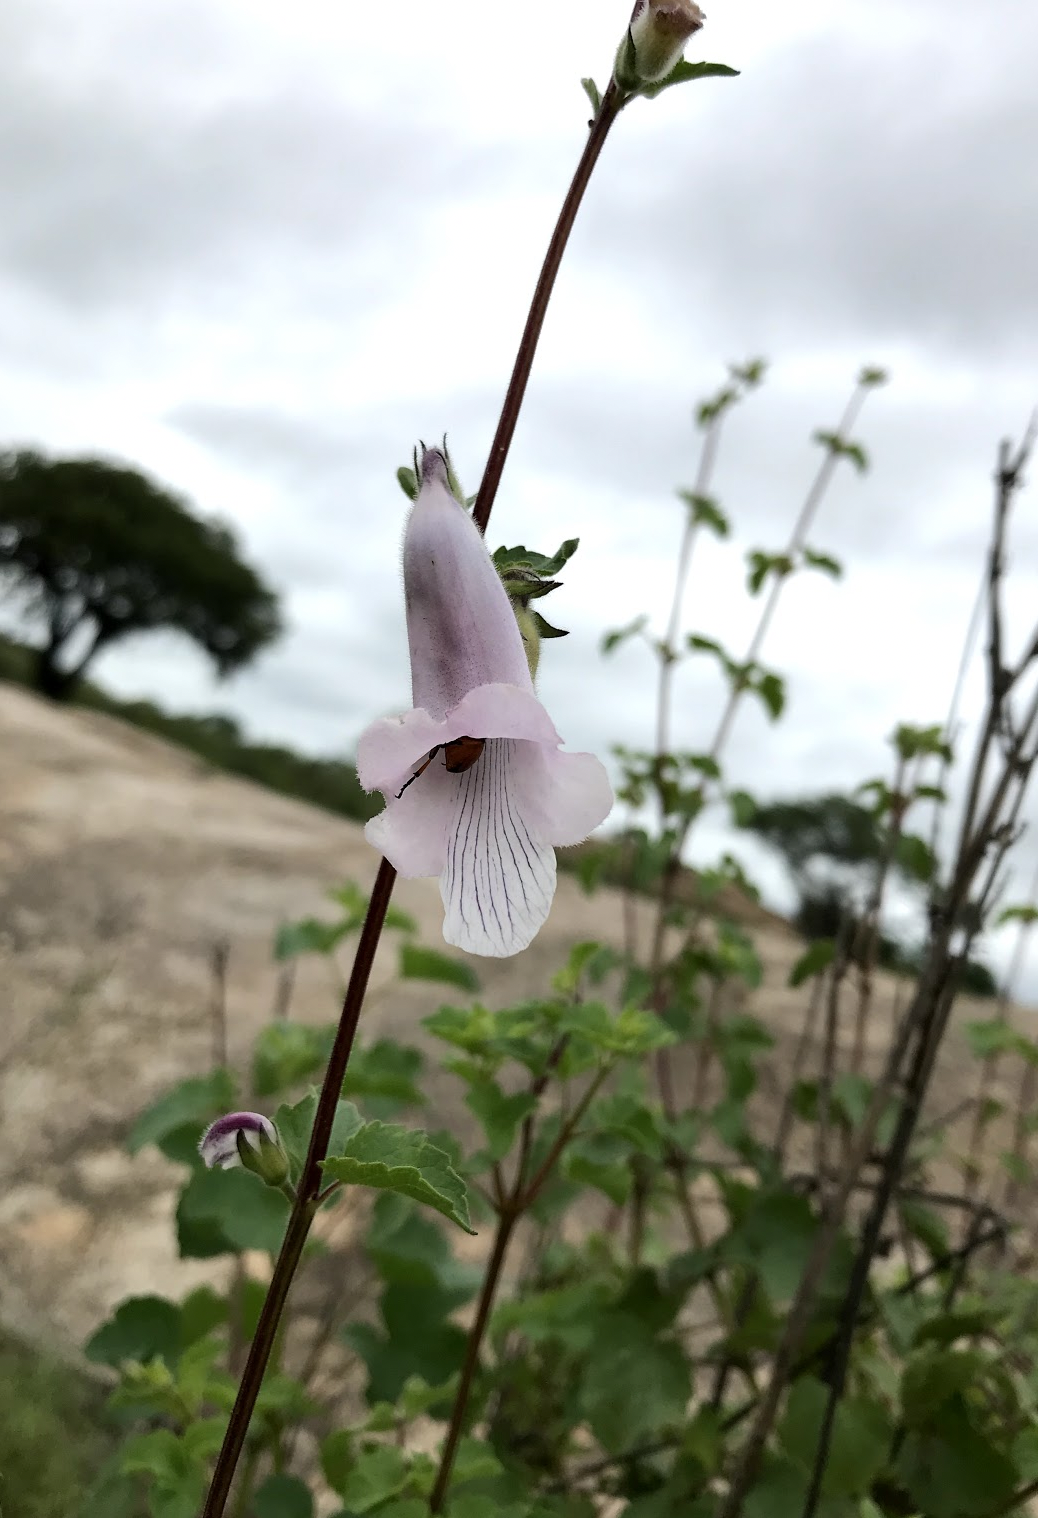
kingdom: Plantae
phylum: Tracheophyta
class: Magnoliopsida
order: Lamiales
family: Pedaliaceae
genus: Sesamum
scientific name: Sesamum trilobum
